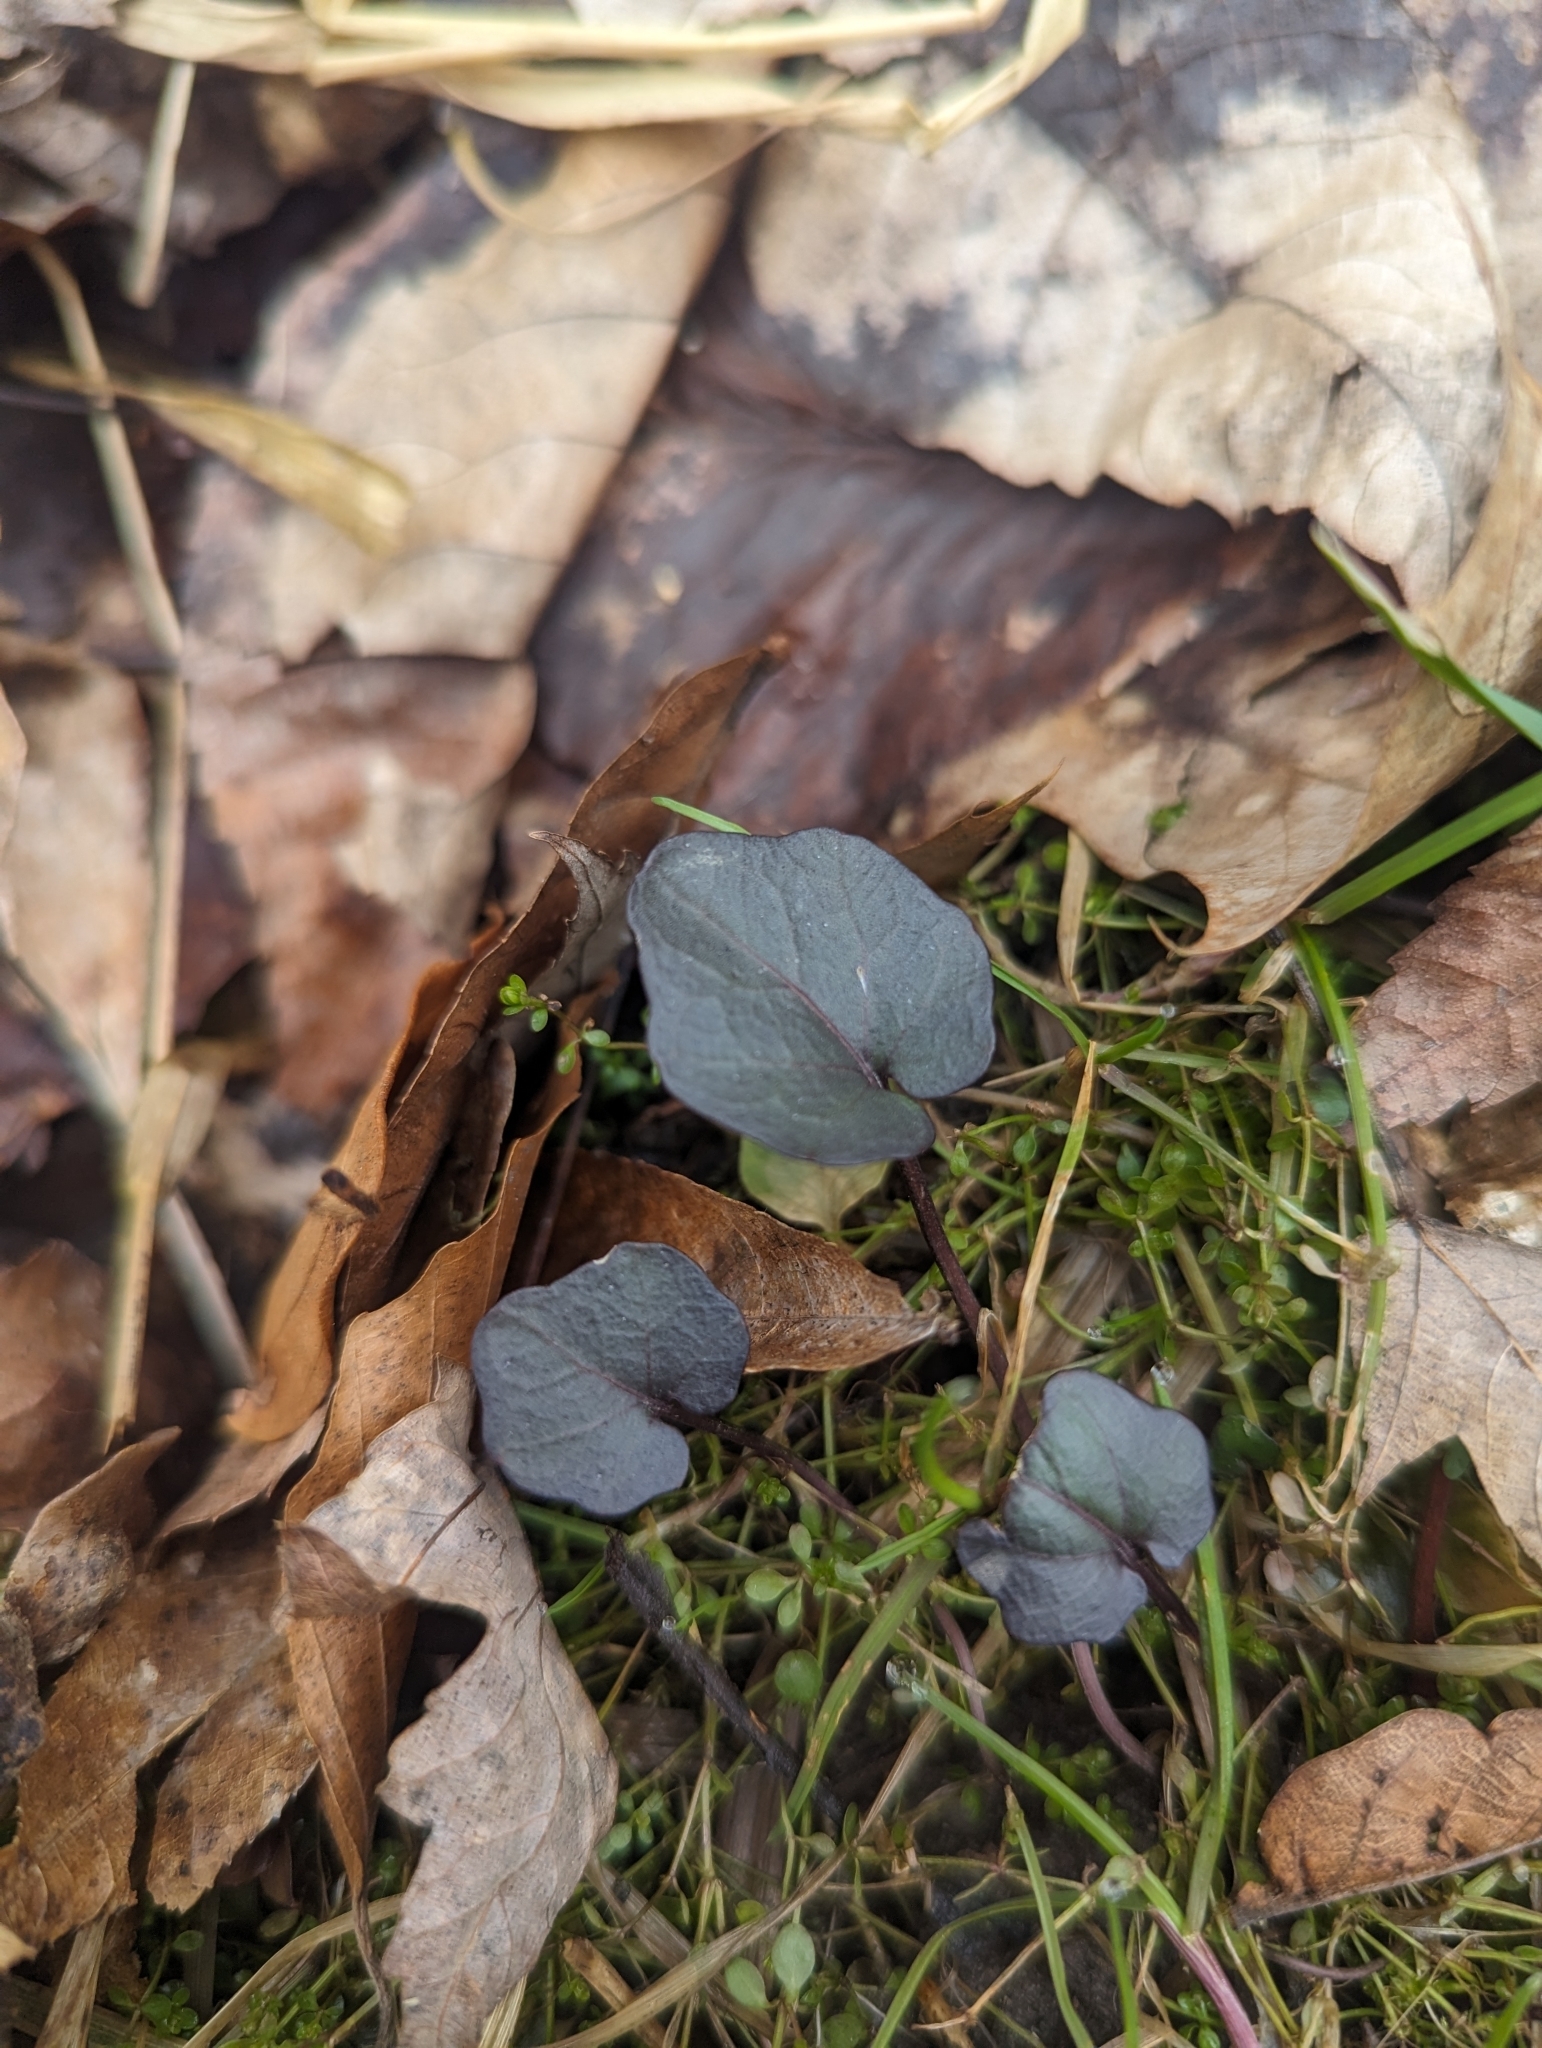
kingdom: Plantae
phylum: Tracheophyta
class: Magnoliopsida
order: Brassicales
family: Brassicaceae
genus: Cardamine
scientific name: Cardamine douglassii
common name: Purple cress
